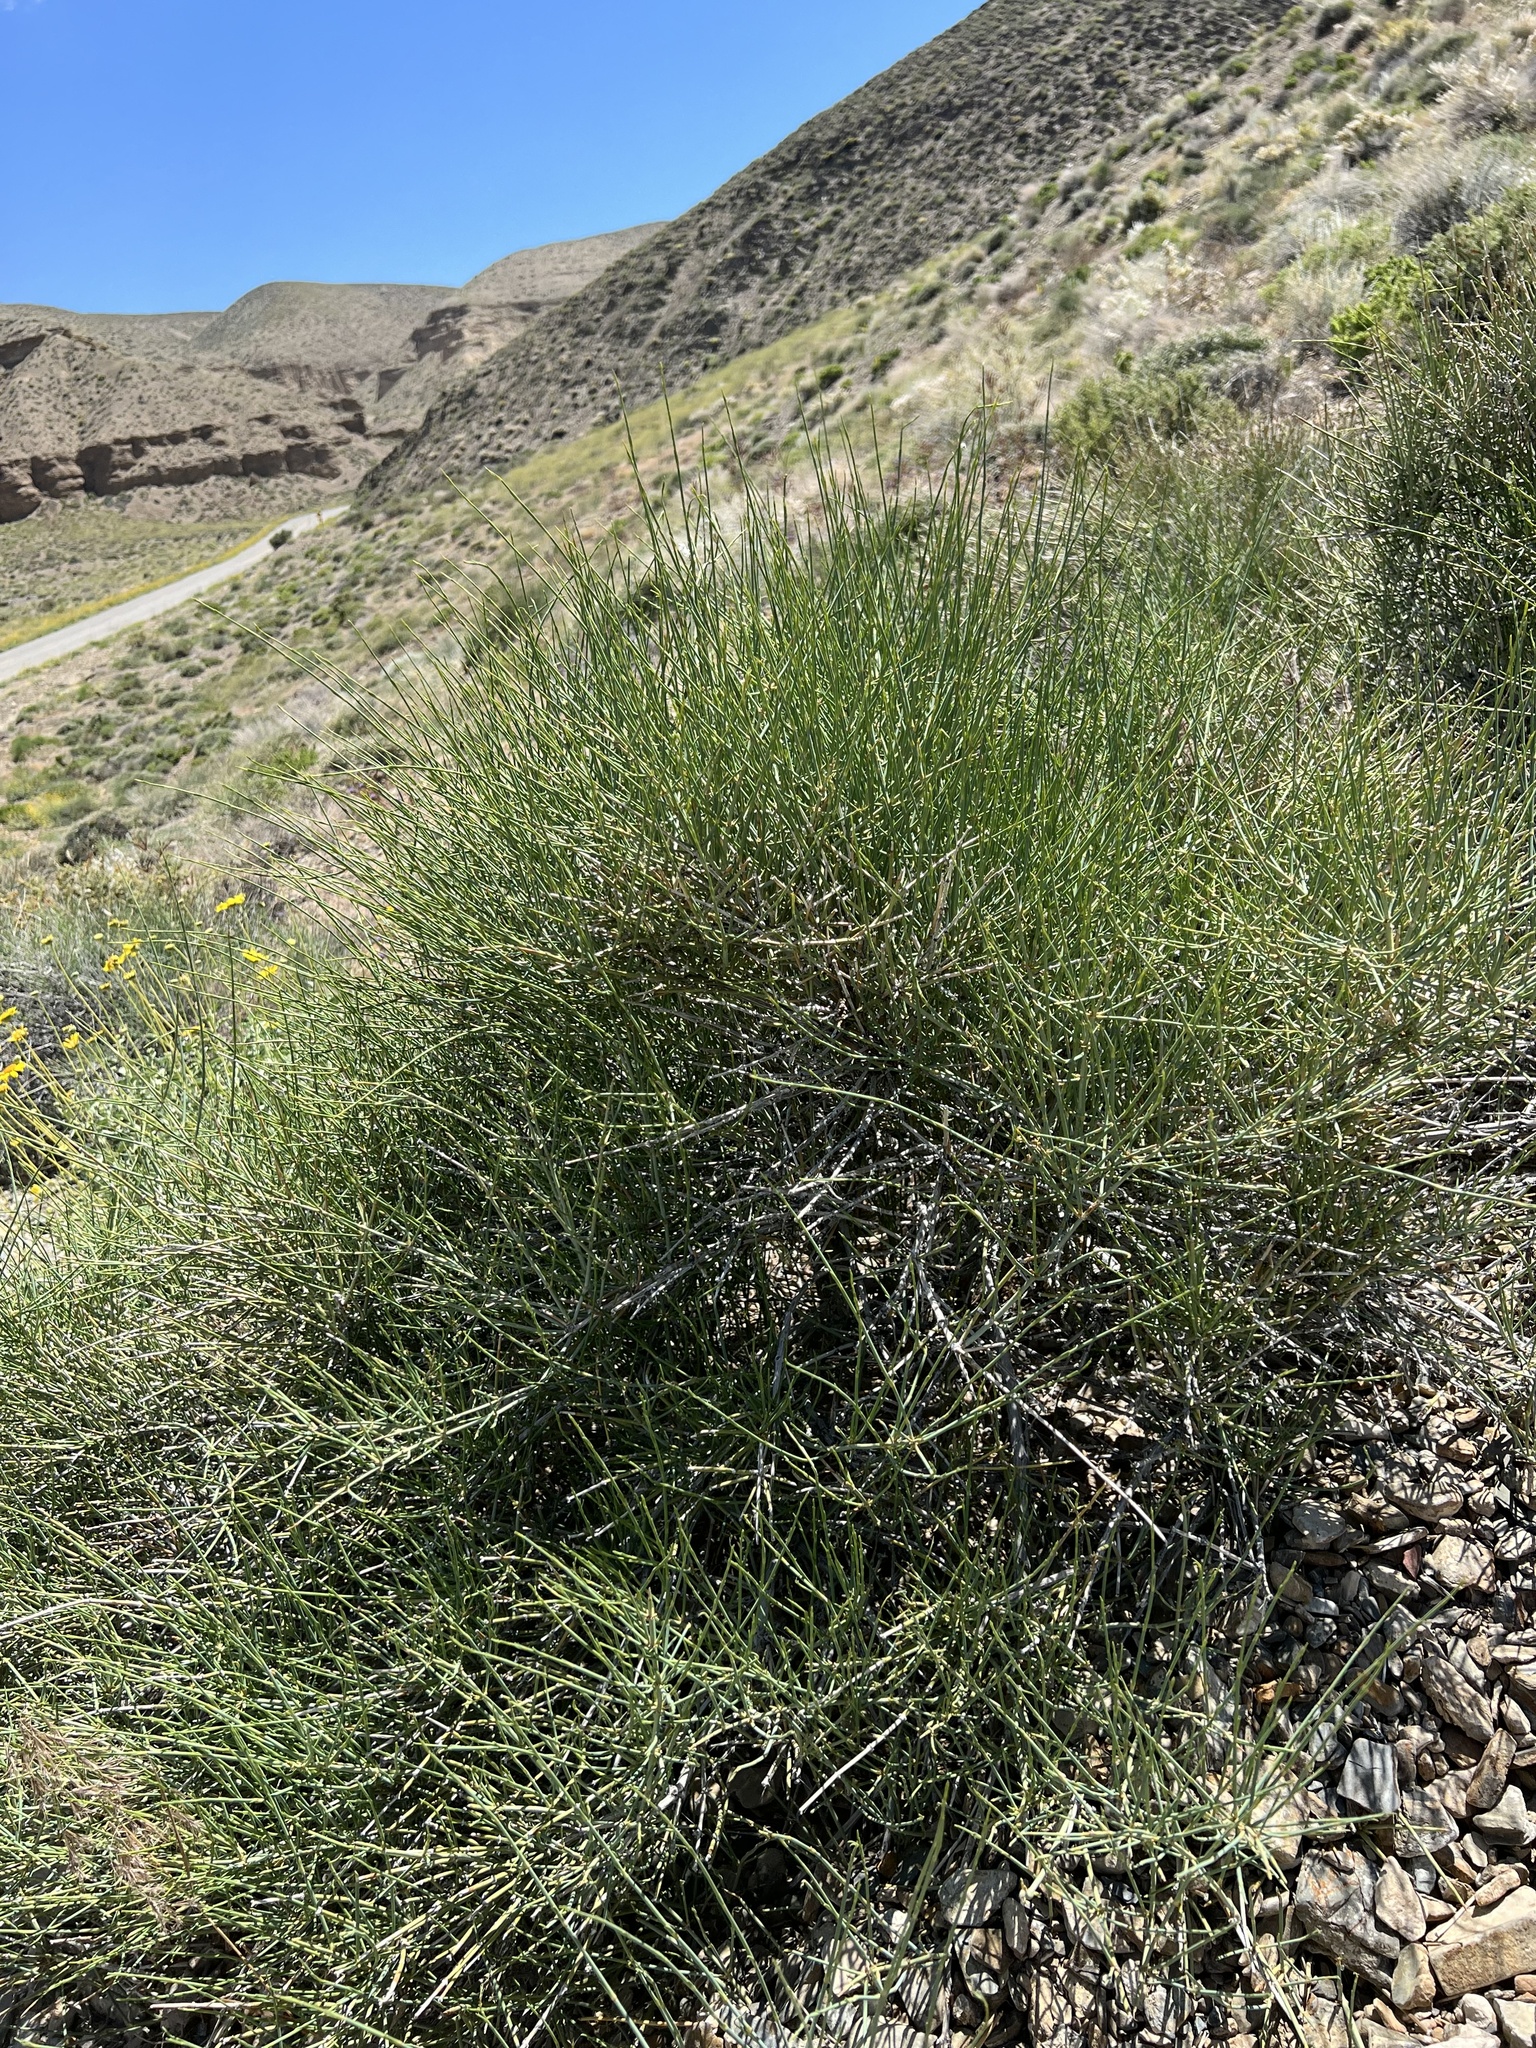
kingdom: Plantae
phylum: Tracheophyta
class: Gnetopsida
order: Ephedrales
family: Ephedraceae
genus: Ephedra
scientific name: Ephedra nevadensis
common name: Gray ephedra
